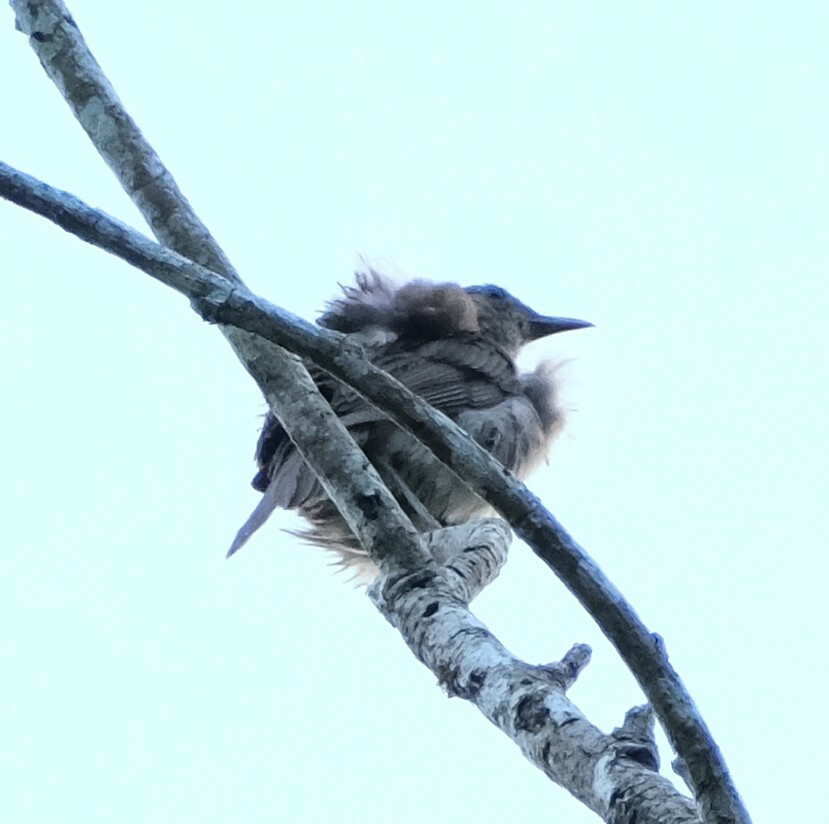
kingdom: Animalia
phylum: Chordata
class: Aves
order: Passeriformes
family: Turdidae
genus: Turdus
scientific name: Turdus ignobilis
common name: Black-billed thrush
